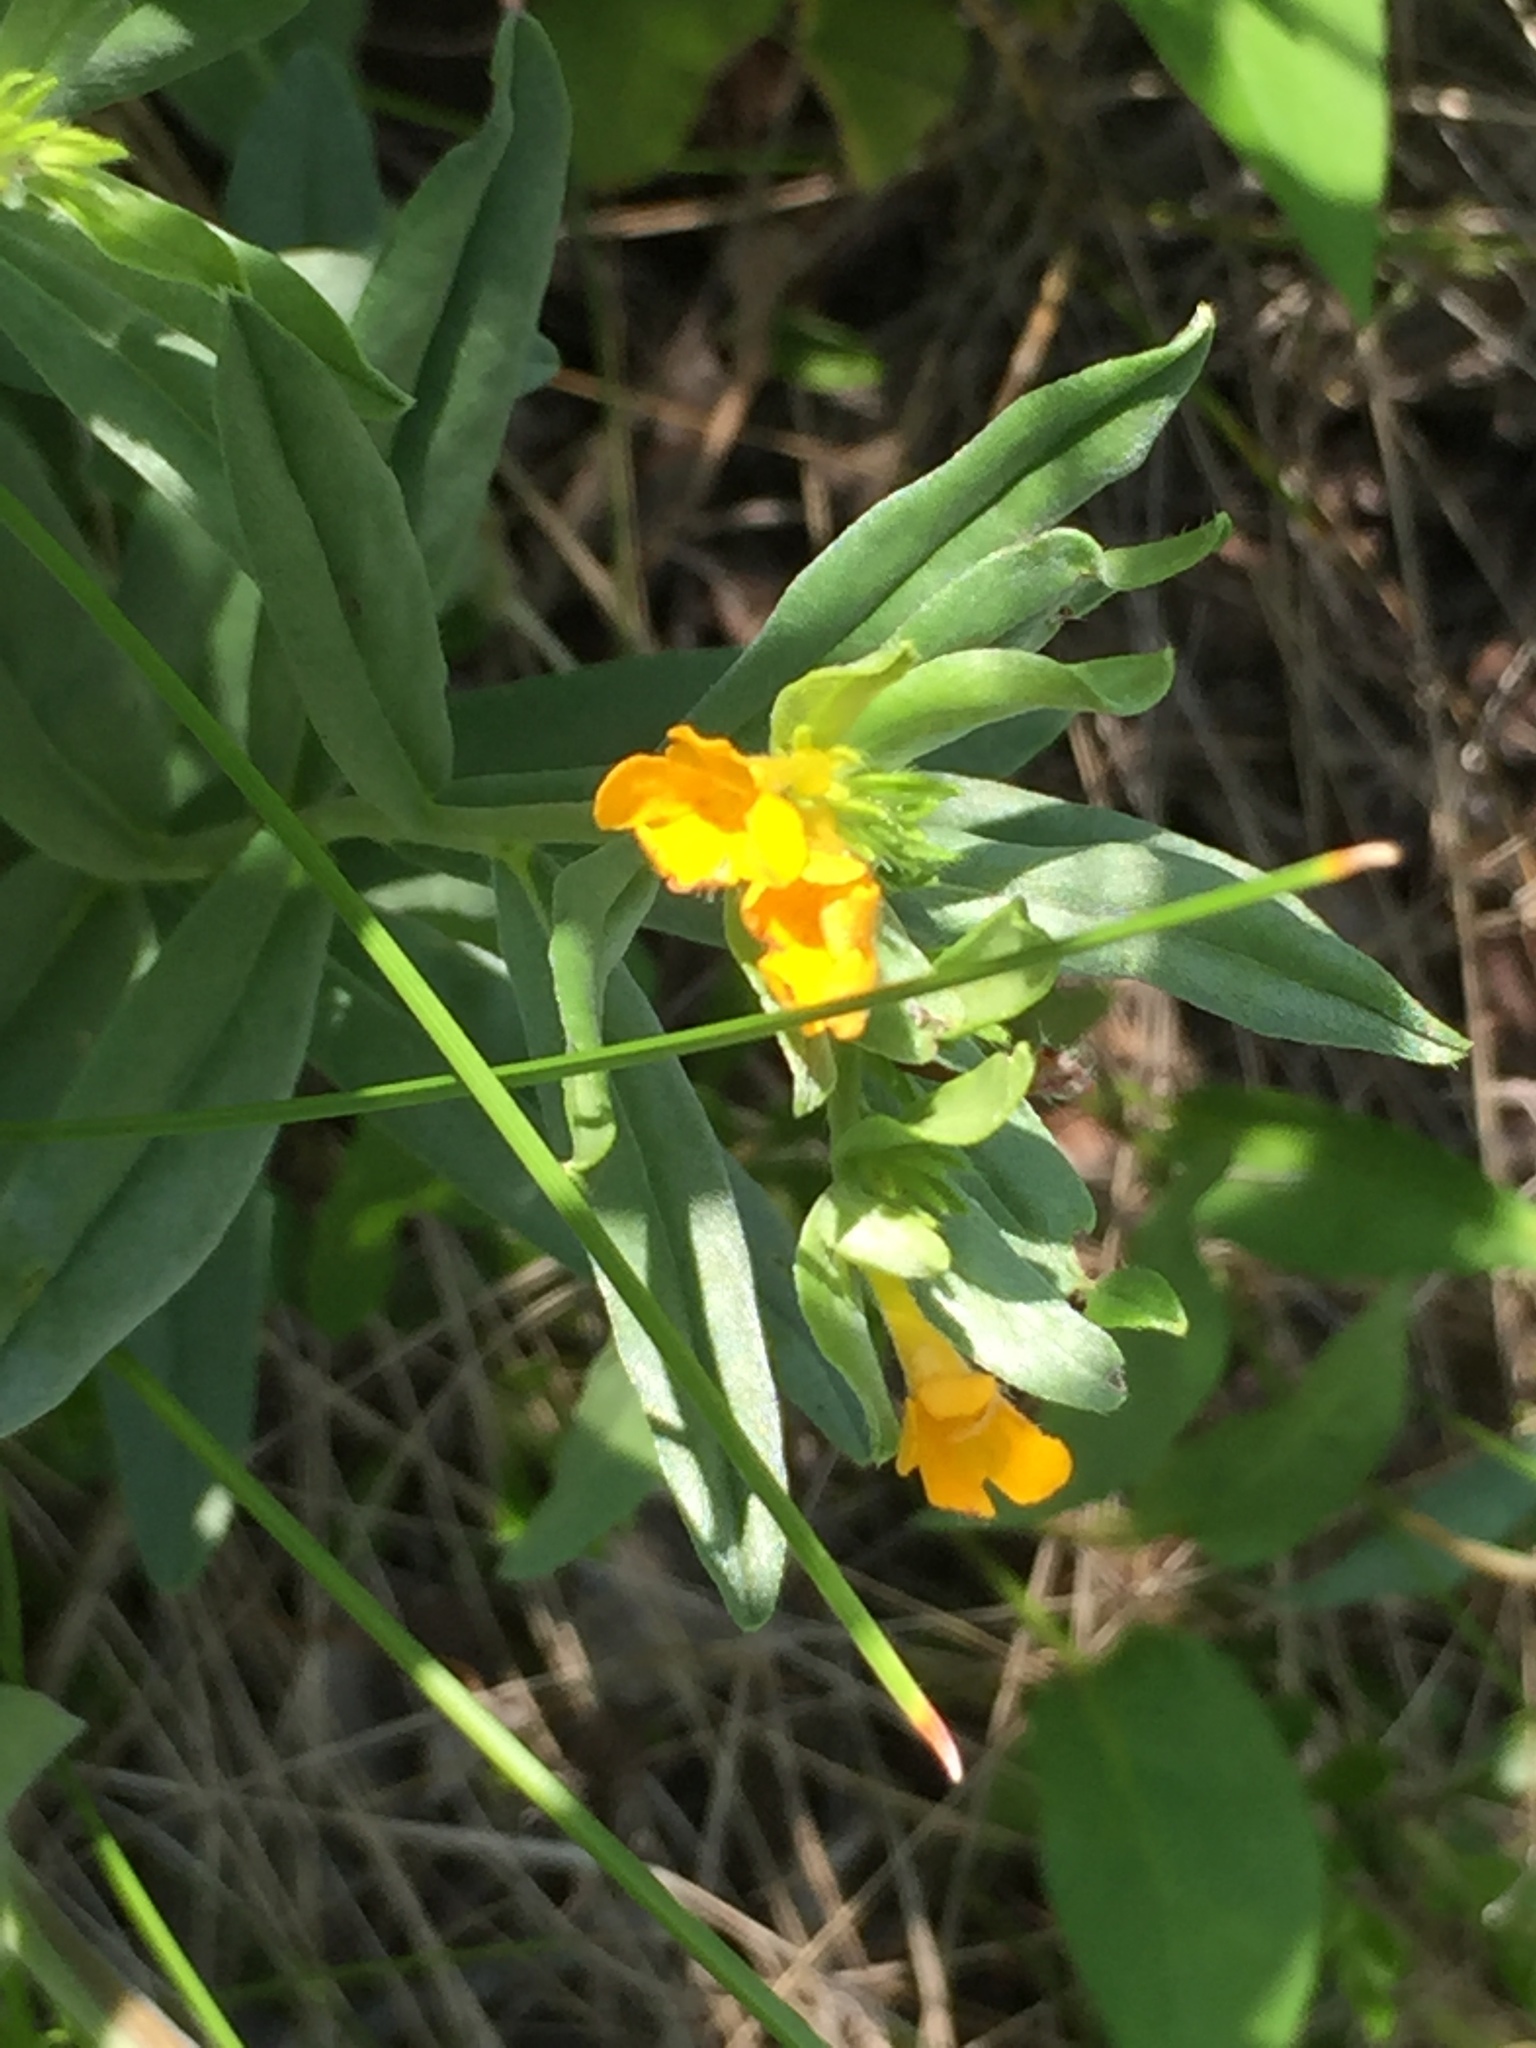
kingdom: Plantae
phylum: Tracheophyta
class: Magnoliopsida
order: Boraginales
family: Boraginaceae
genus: Lithospermum
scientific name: Lithospermum canescens
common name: Hoary puccoon
